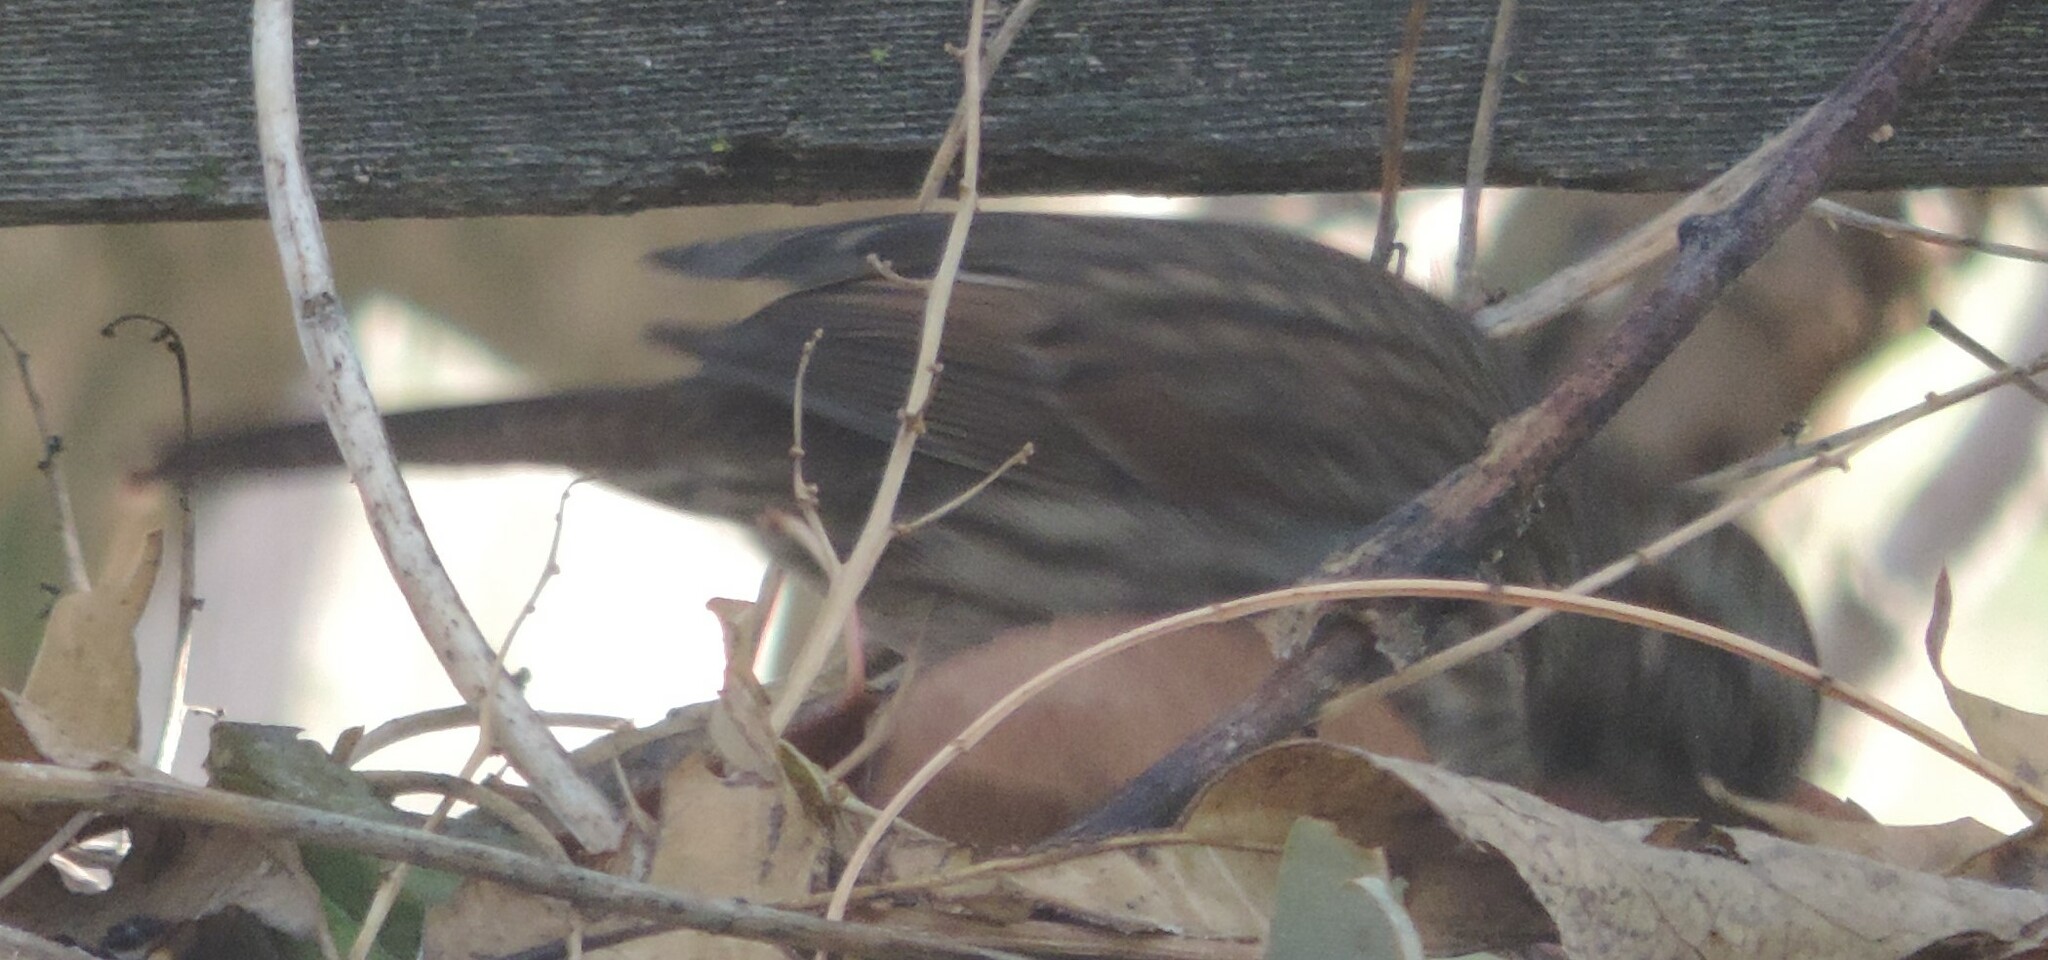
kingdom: Animalia
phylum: Chordata
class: Aves
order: Passeriformes
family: Passerellidae
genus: Melospiza
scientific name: Melospiza melodia
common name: Song sparrow
